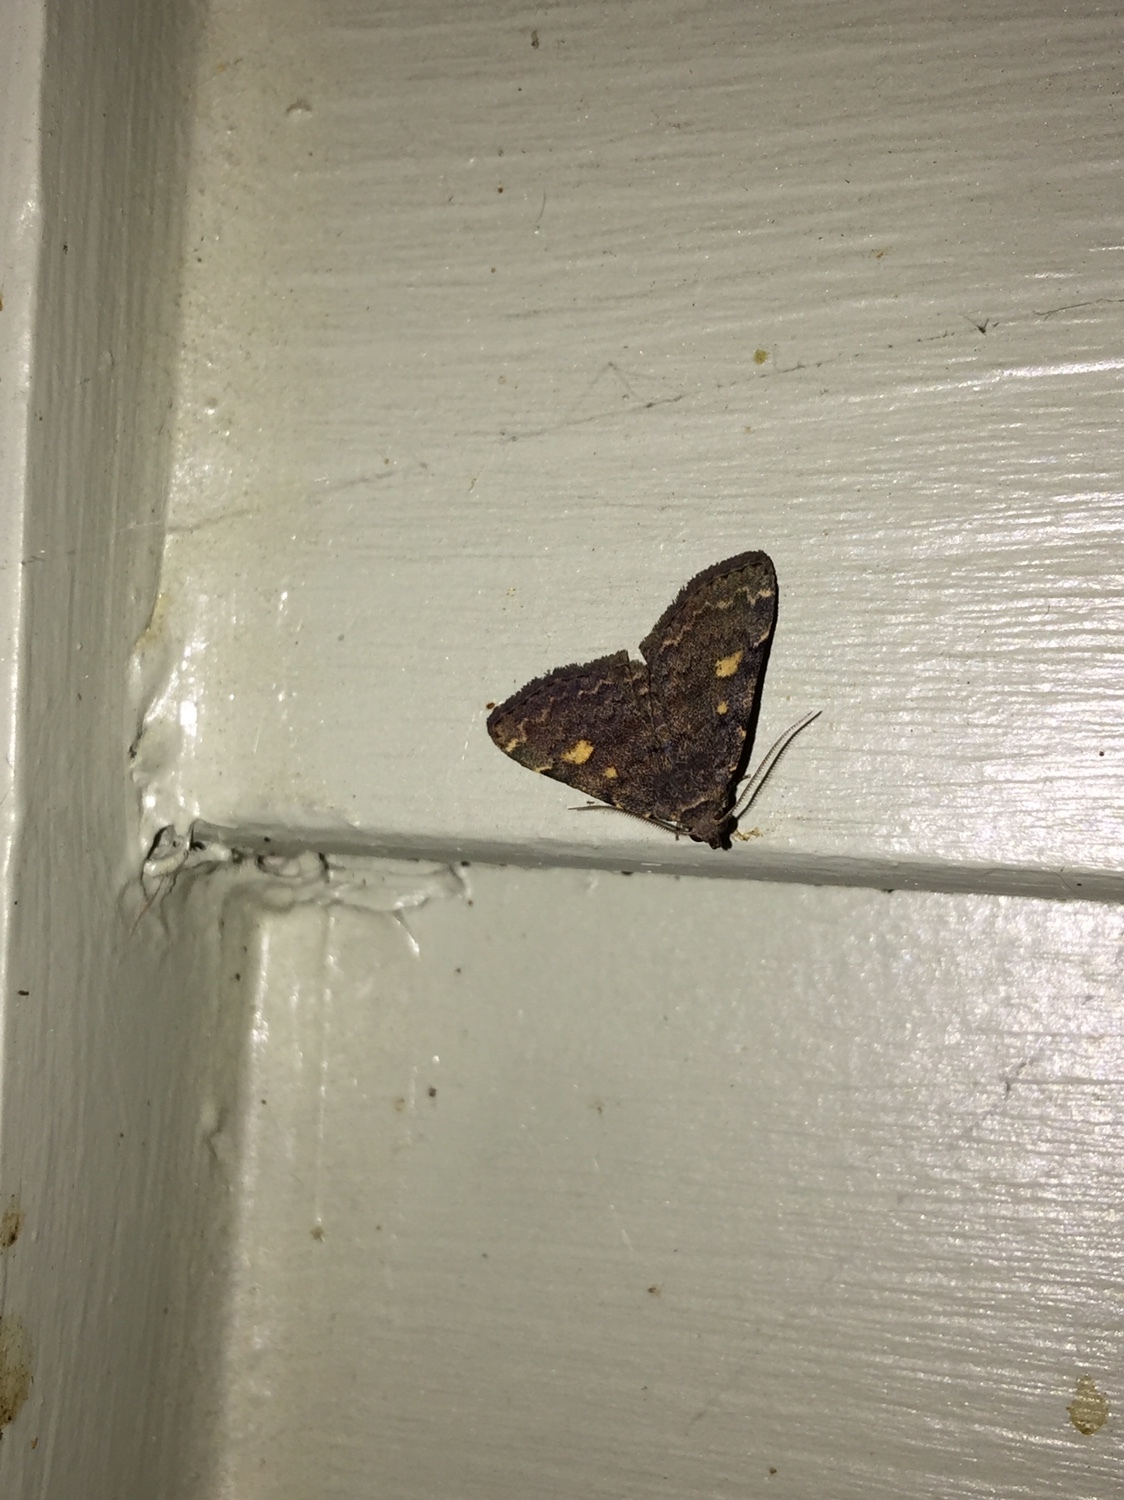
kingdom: Animalia
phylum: Arthropoda
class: Insecta
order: Lepidoptera
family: Erebidae
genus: Idia
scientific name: Idia aemula
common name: Common idia moth
